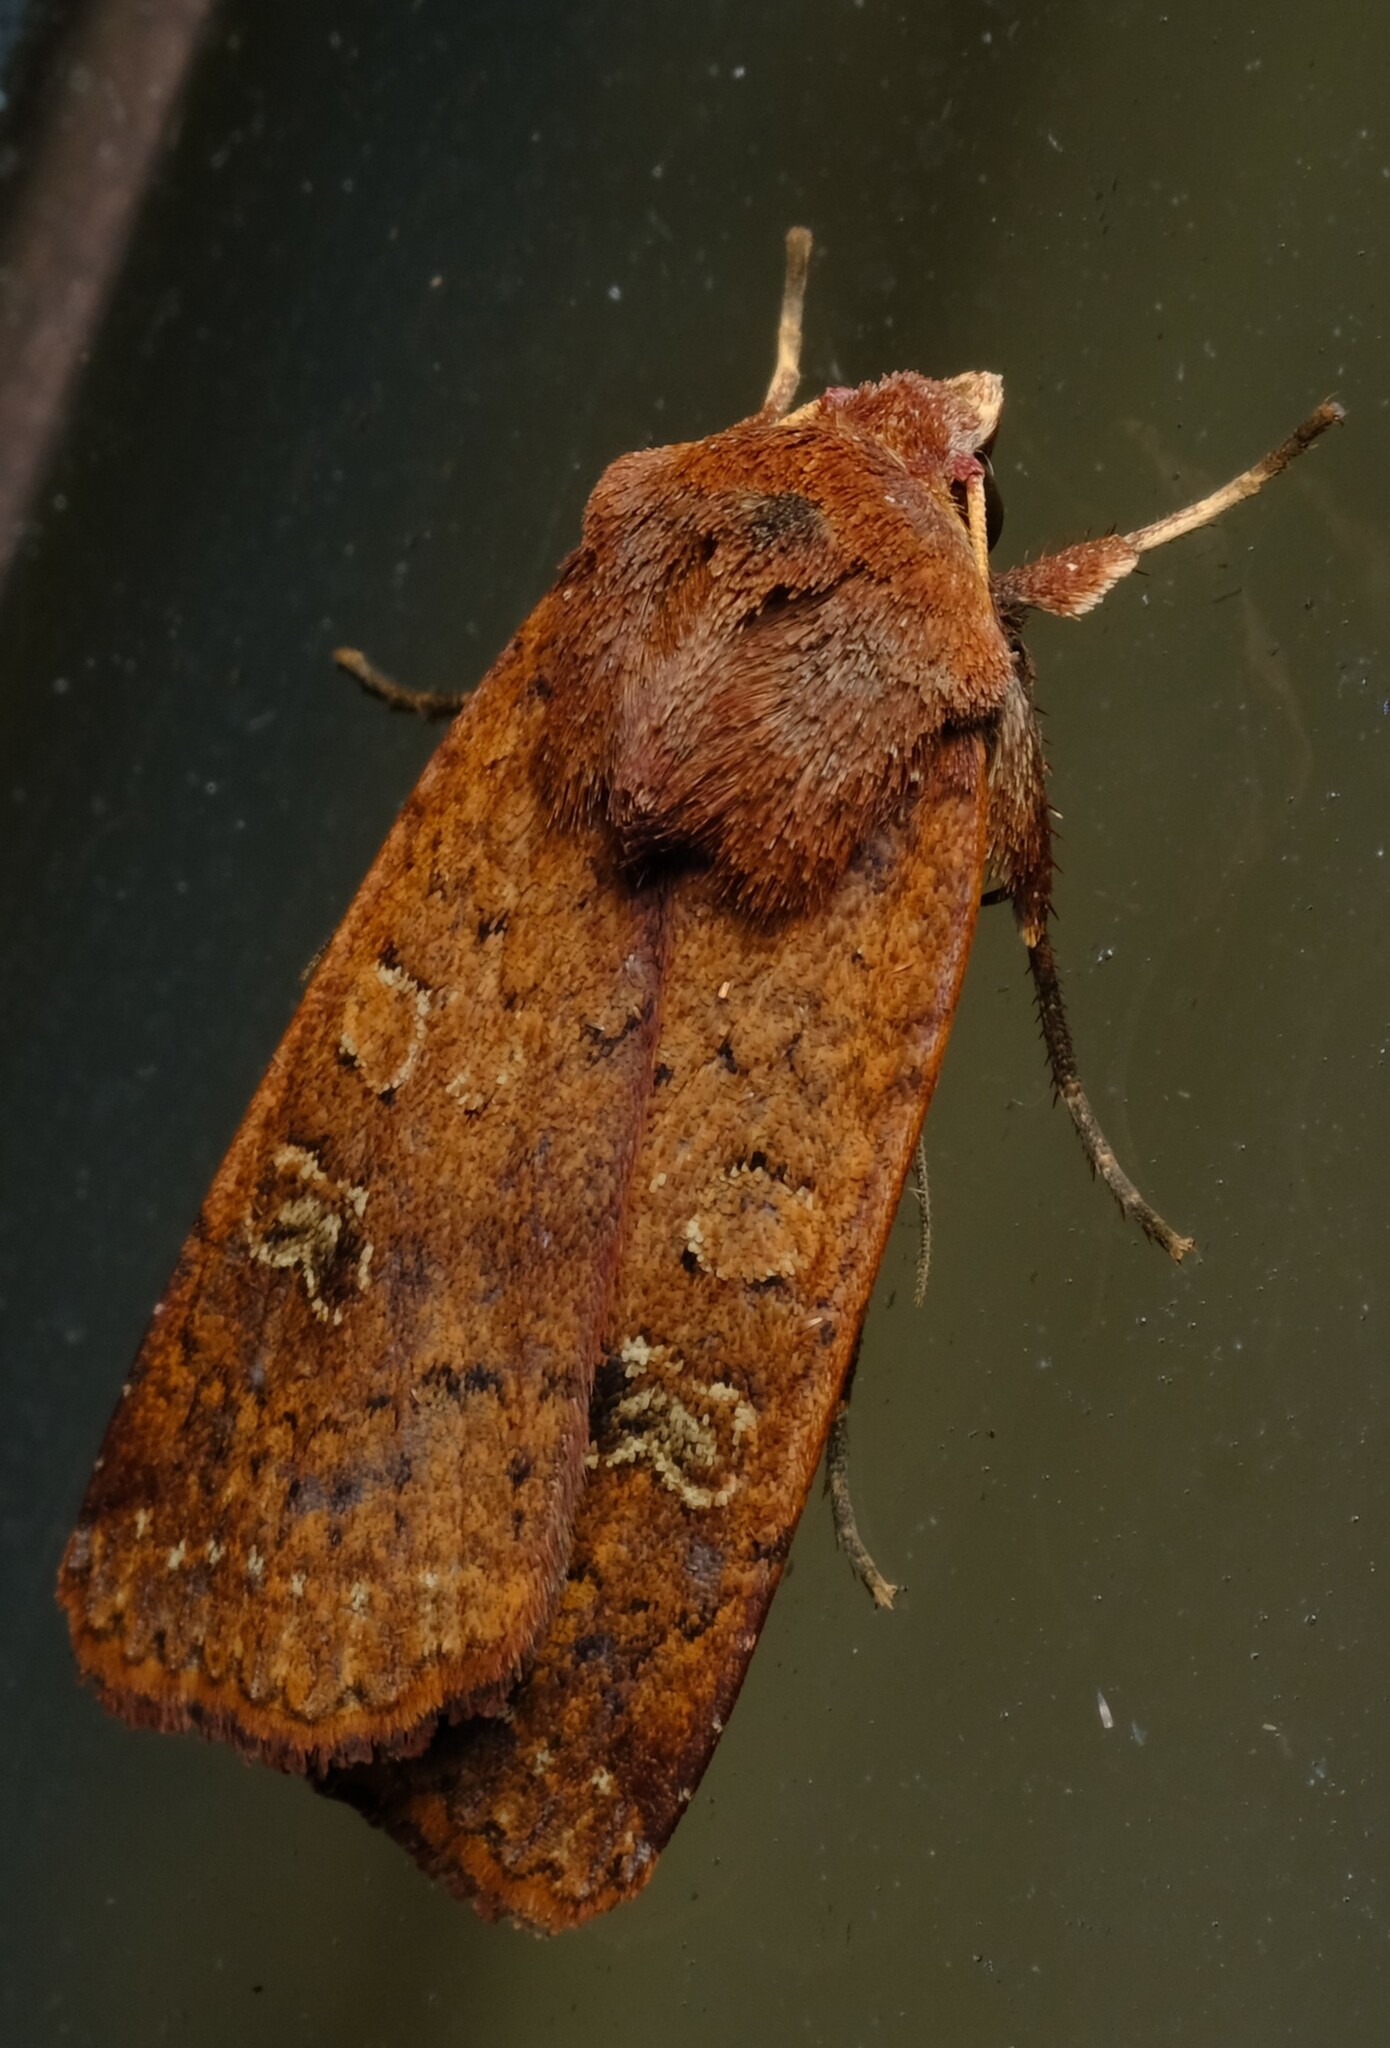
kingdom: Animalia
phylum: Arthropoda
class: Insecta
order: Lepidoptera
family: Noctuidae
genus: Diarsia
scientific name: Diarsia intermixta
